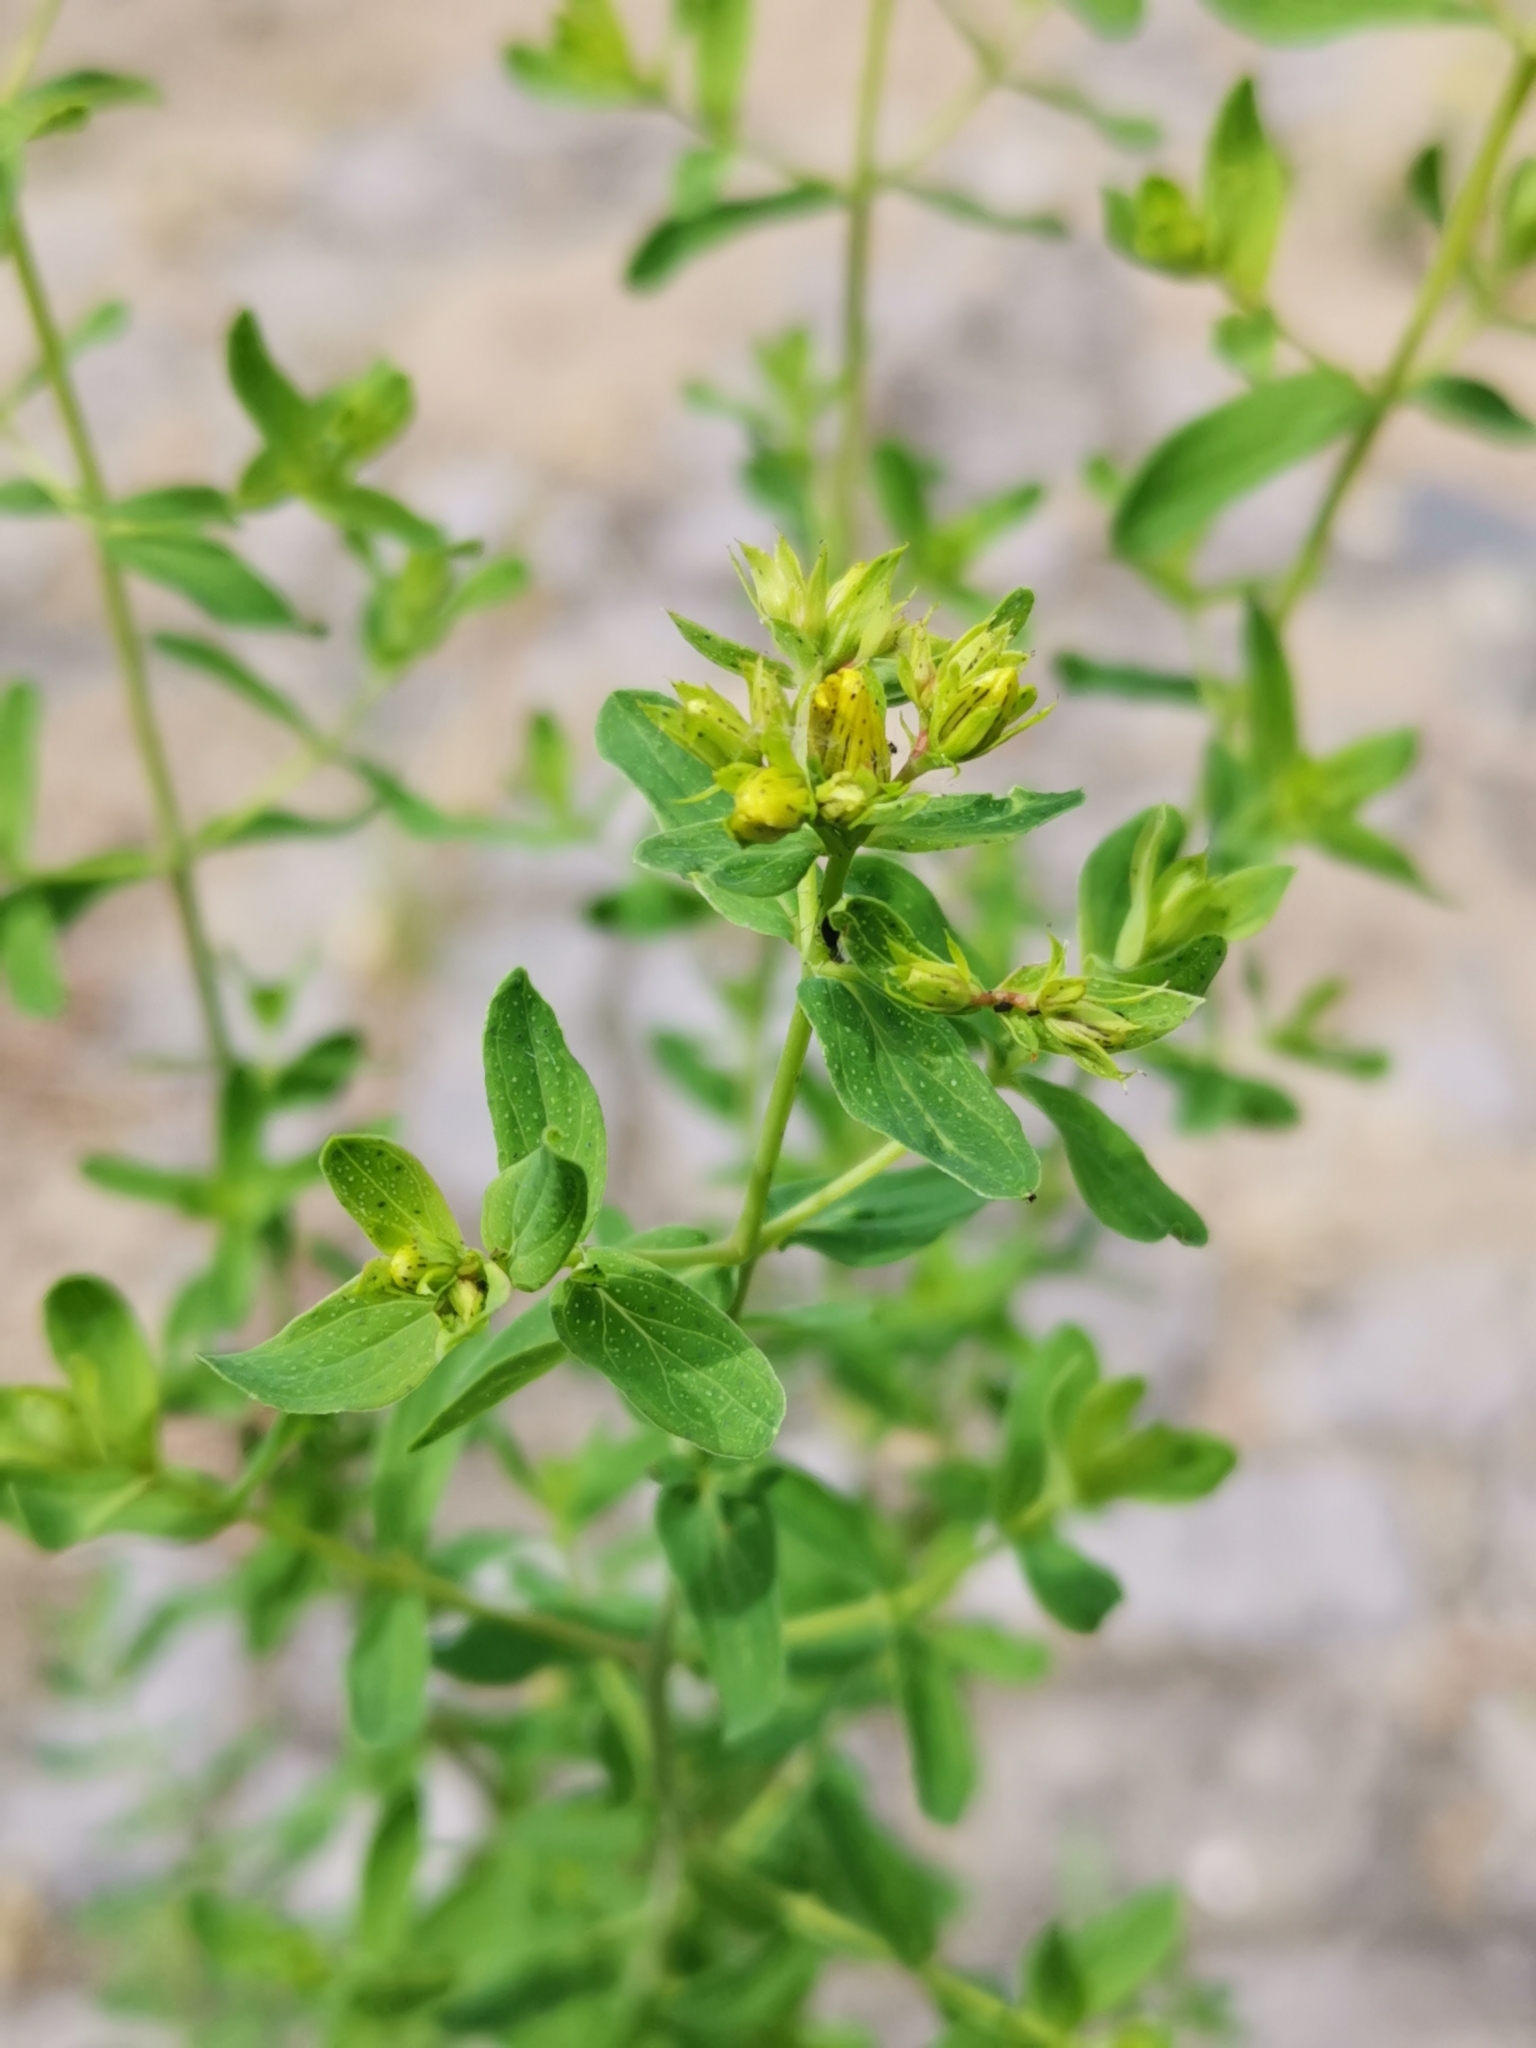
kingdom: Plantae
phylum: Tracheophyta
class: Magnoliopsida
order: Malpighiales
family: Hypericaceae
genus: Hypericum
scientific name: Hypericum perforatum
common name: Common st. johnswort
